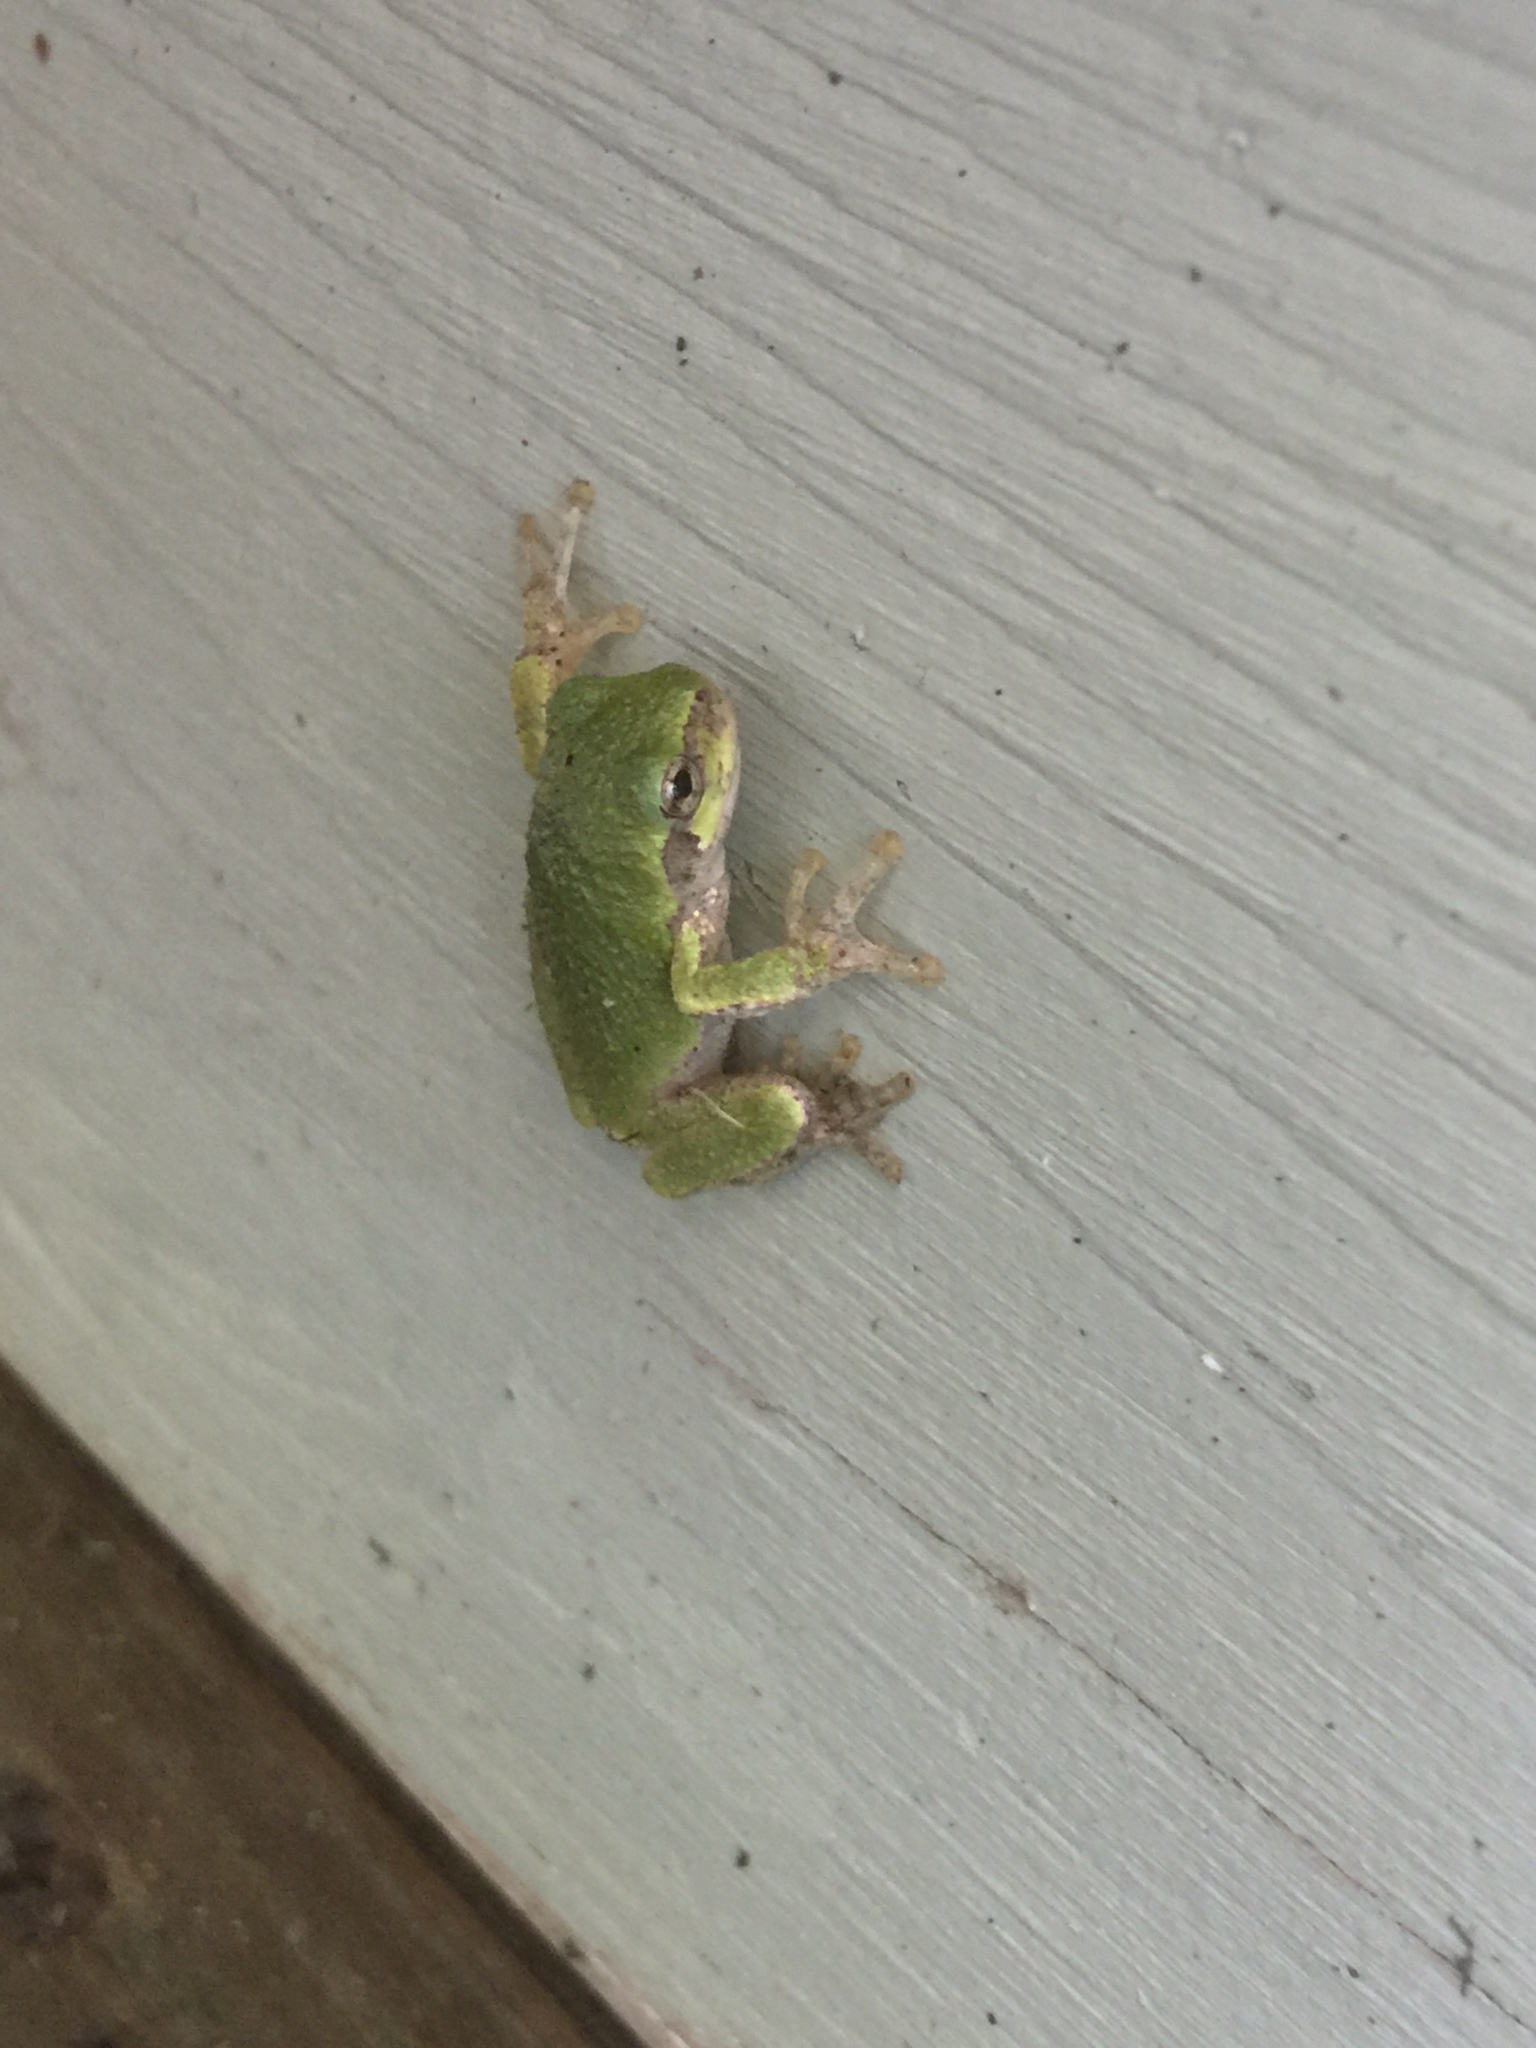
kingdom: Animalia
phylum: Chordata
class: Amphibia
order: Anura
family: Hylidae
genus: Dryophytes
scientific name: Dryophytes versicolor
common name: Gray treefrog
